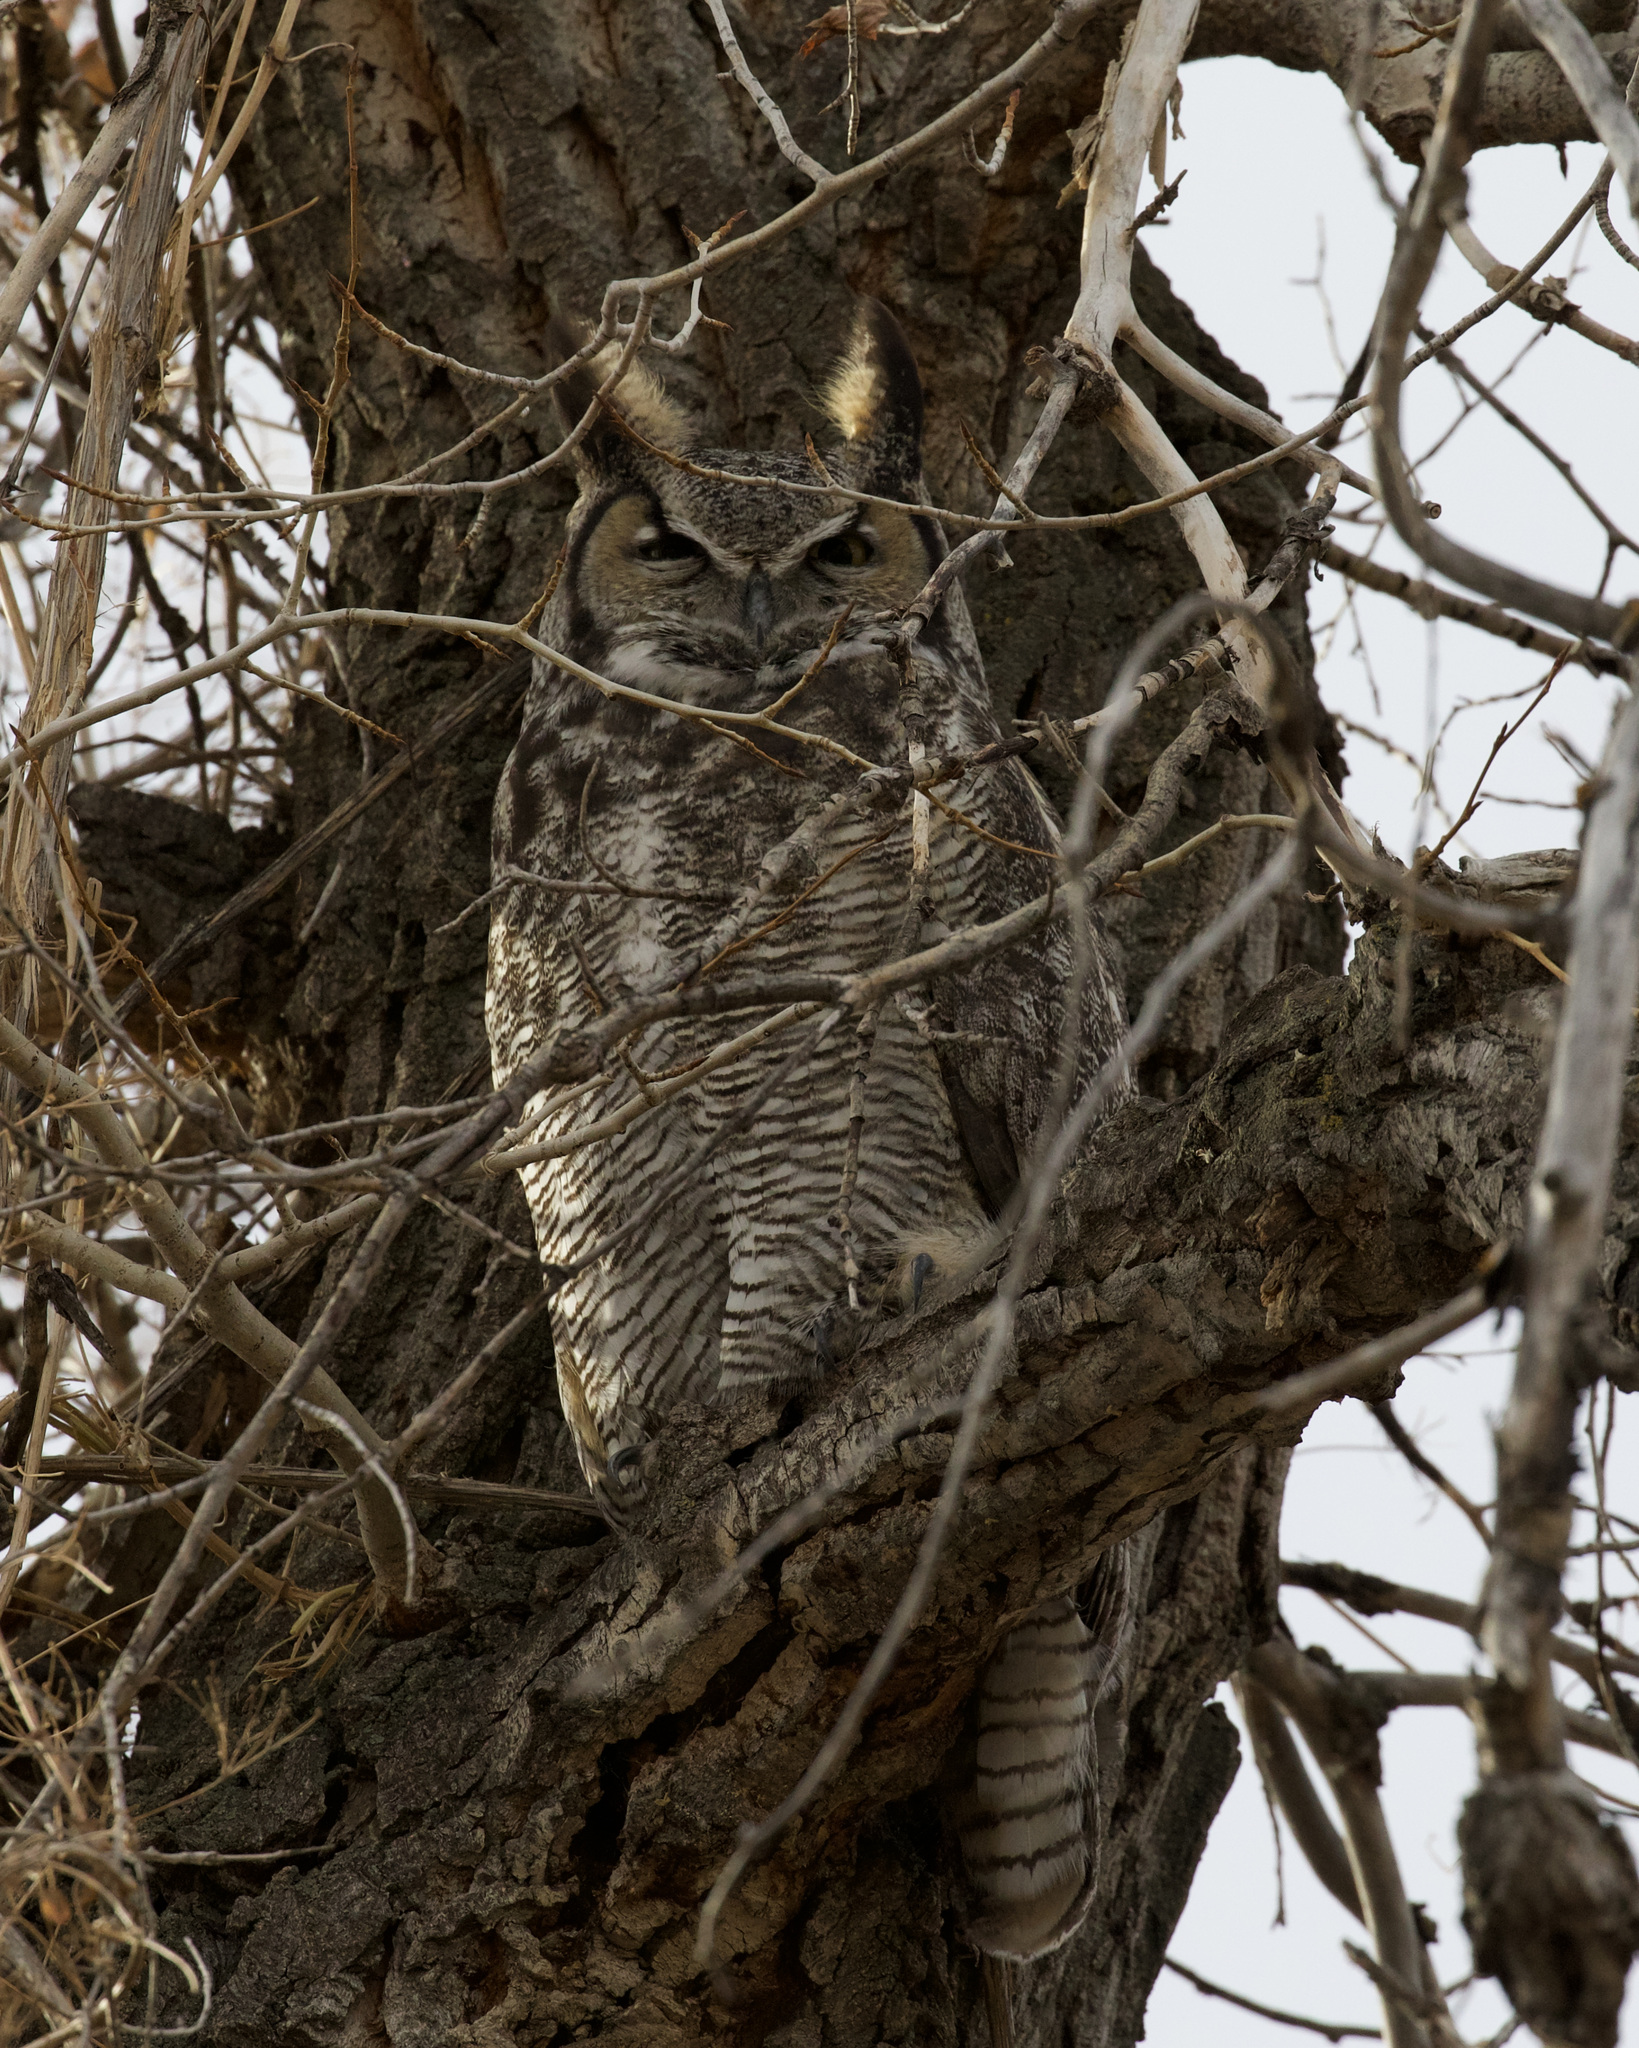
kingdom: Animalia
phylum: Chordata
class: Aves
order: Strigiformes
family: Strigidae
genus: Bubo
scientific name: Bubo virginianus
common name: Great horned owl
